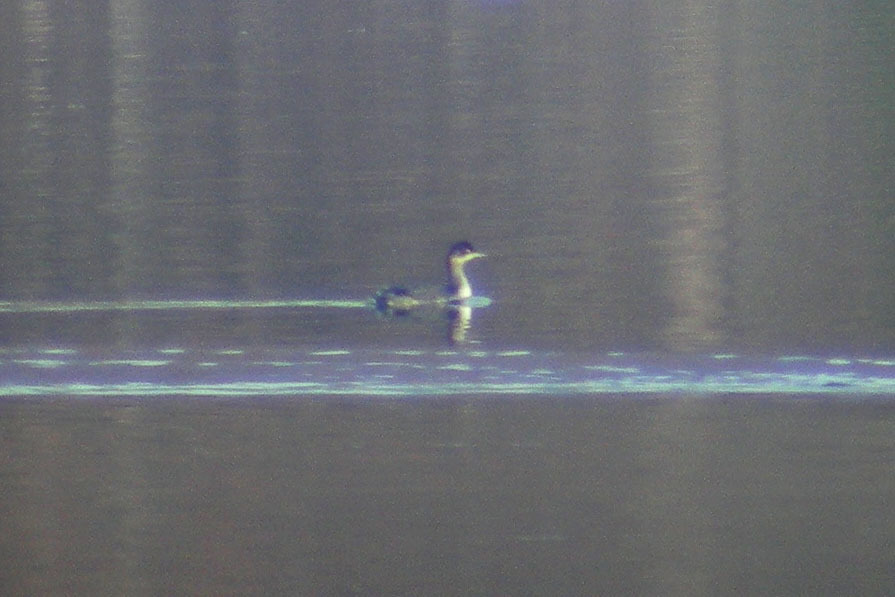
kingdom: Animalia
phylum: Chordata
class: Aves
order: Podicipediformes
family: Podicipedidae
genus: Podiceps
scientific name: Podiceps nigricollis
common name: Black-necked grebe
